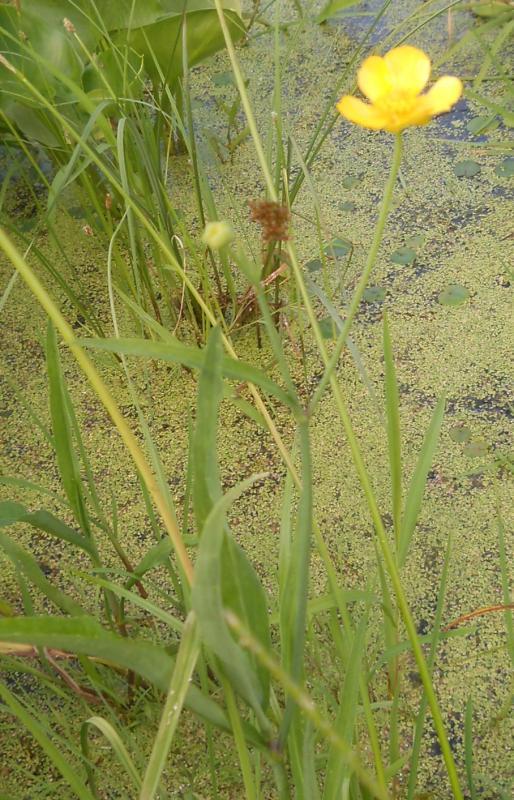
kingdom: Plantae
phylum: Tracheophyta
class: Magnoliopsida
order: Ranunculales
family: Ranunculaceae
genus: Ranunculus
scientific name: Ranunculus lingua
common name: Greater spearwort
